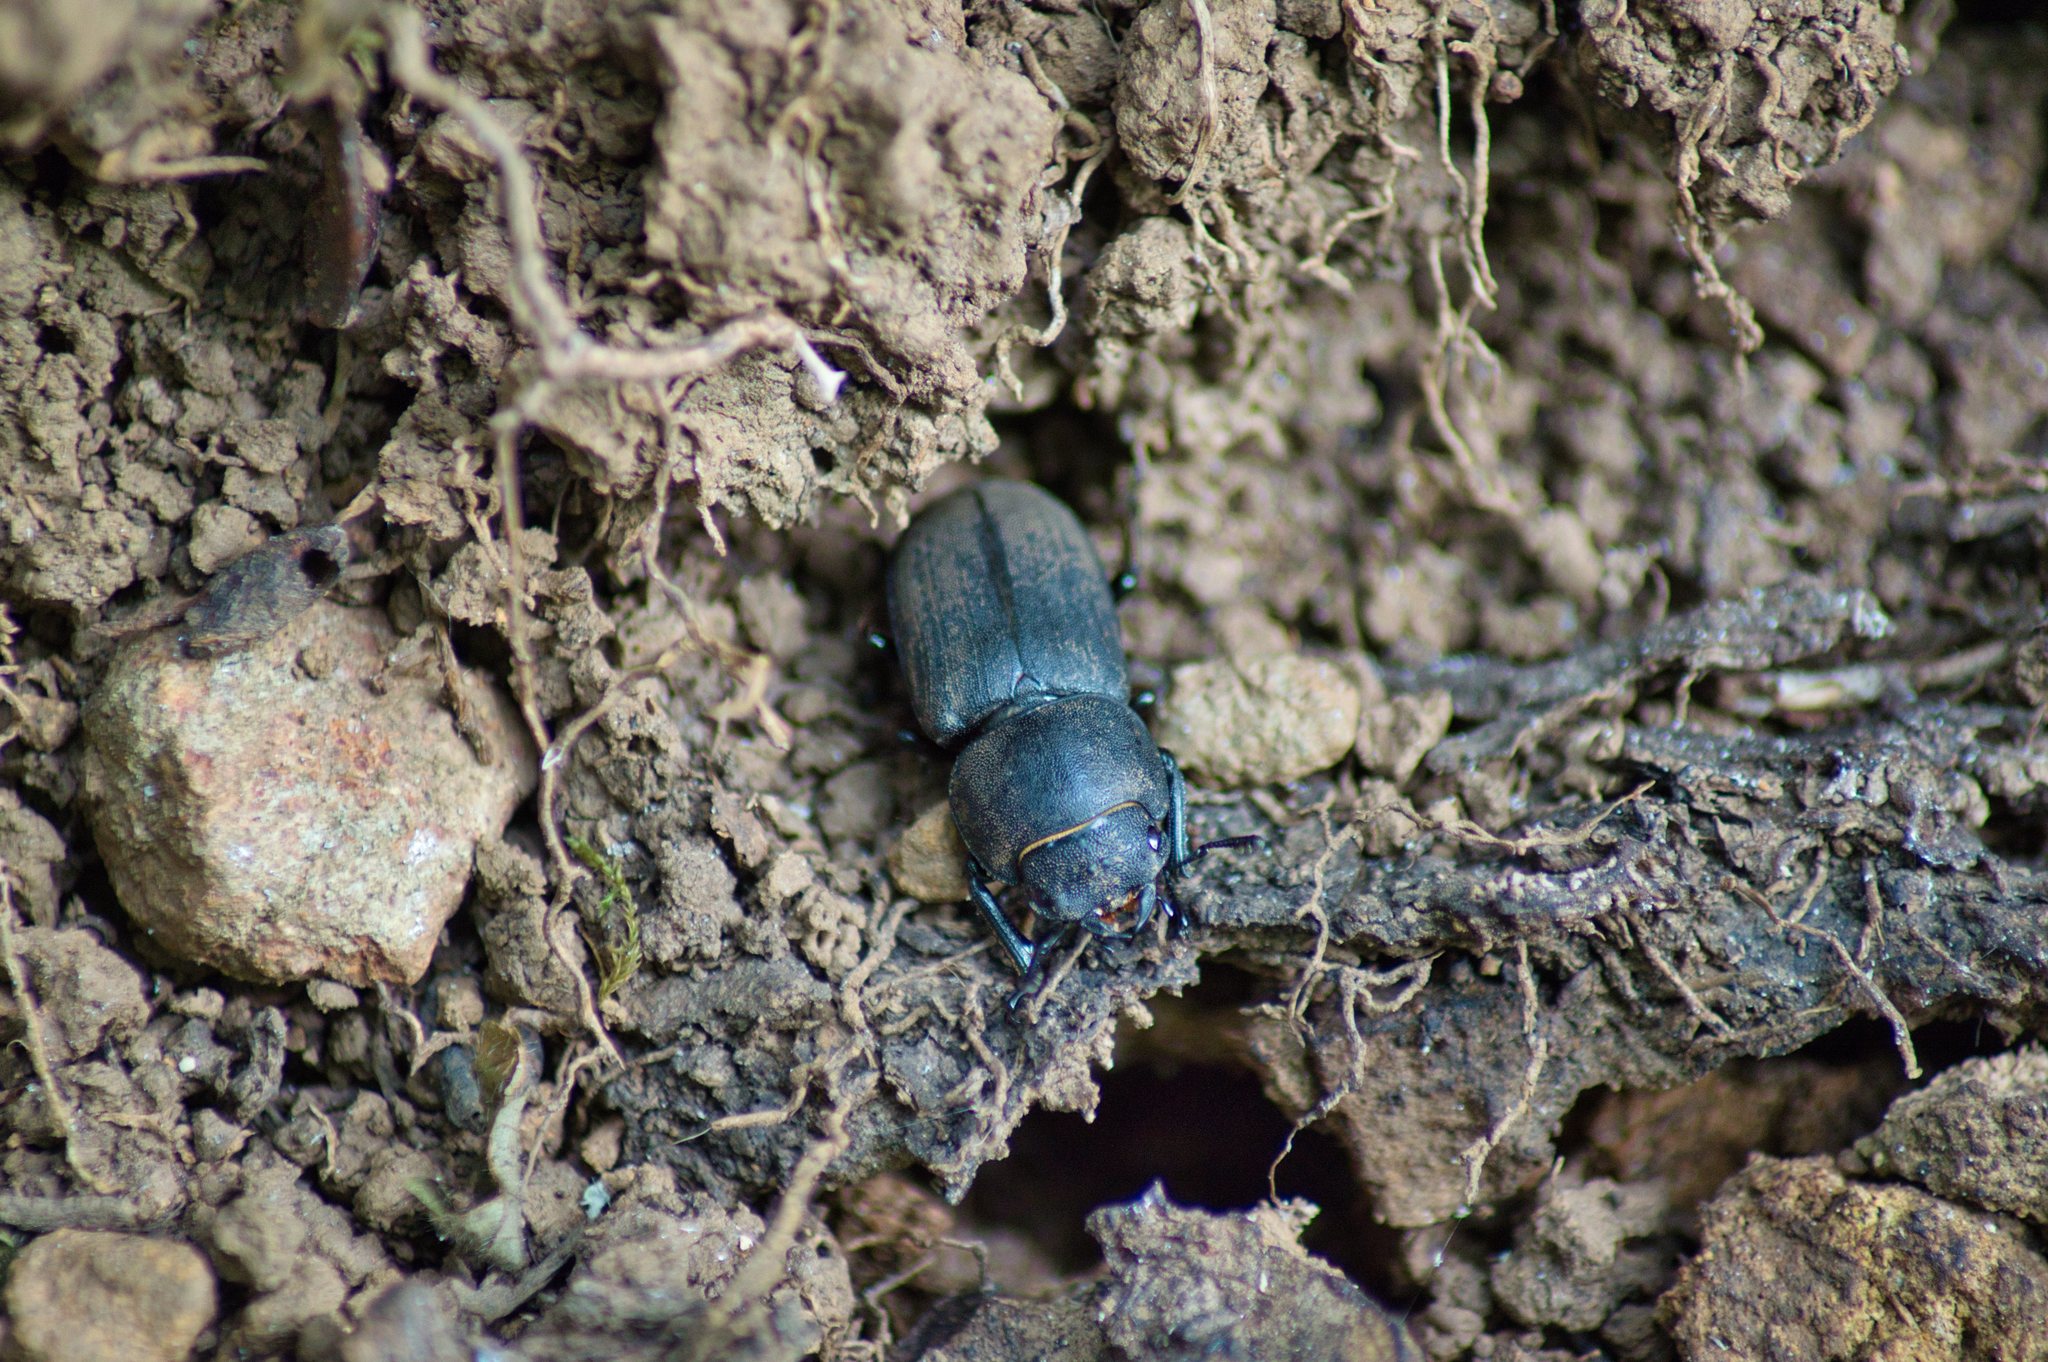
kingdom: Animalia
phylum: Arthropoda
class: Insecta
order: Coleoptera
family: Lucanidae
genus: Dorcus
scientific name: Dorcus parallelipipedus
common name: Lesser stag beetle
